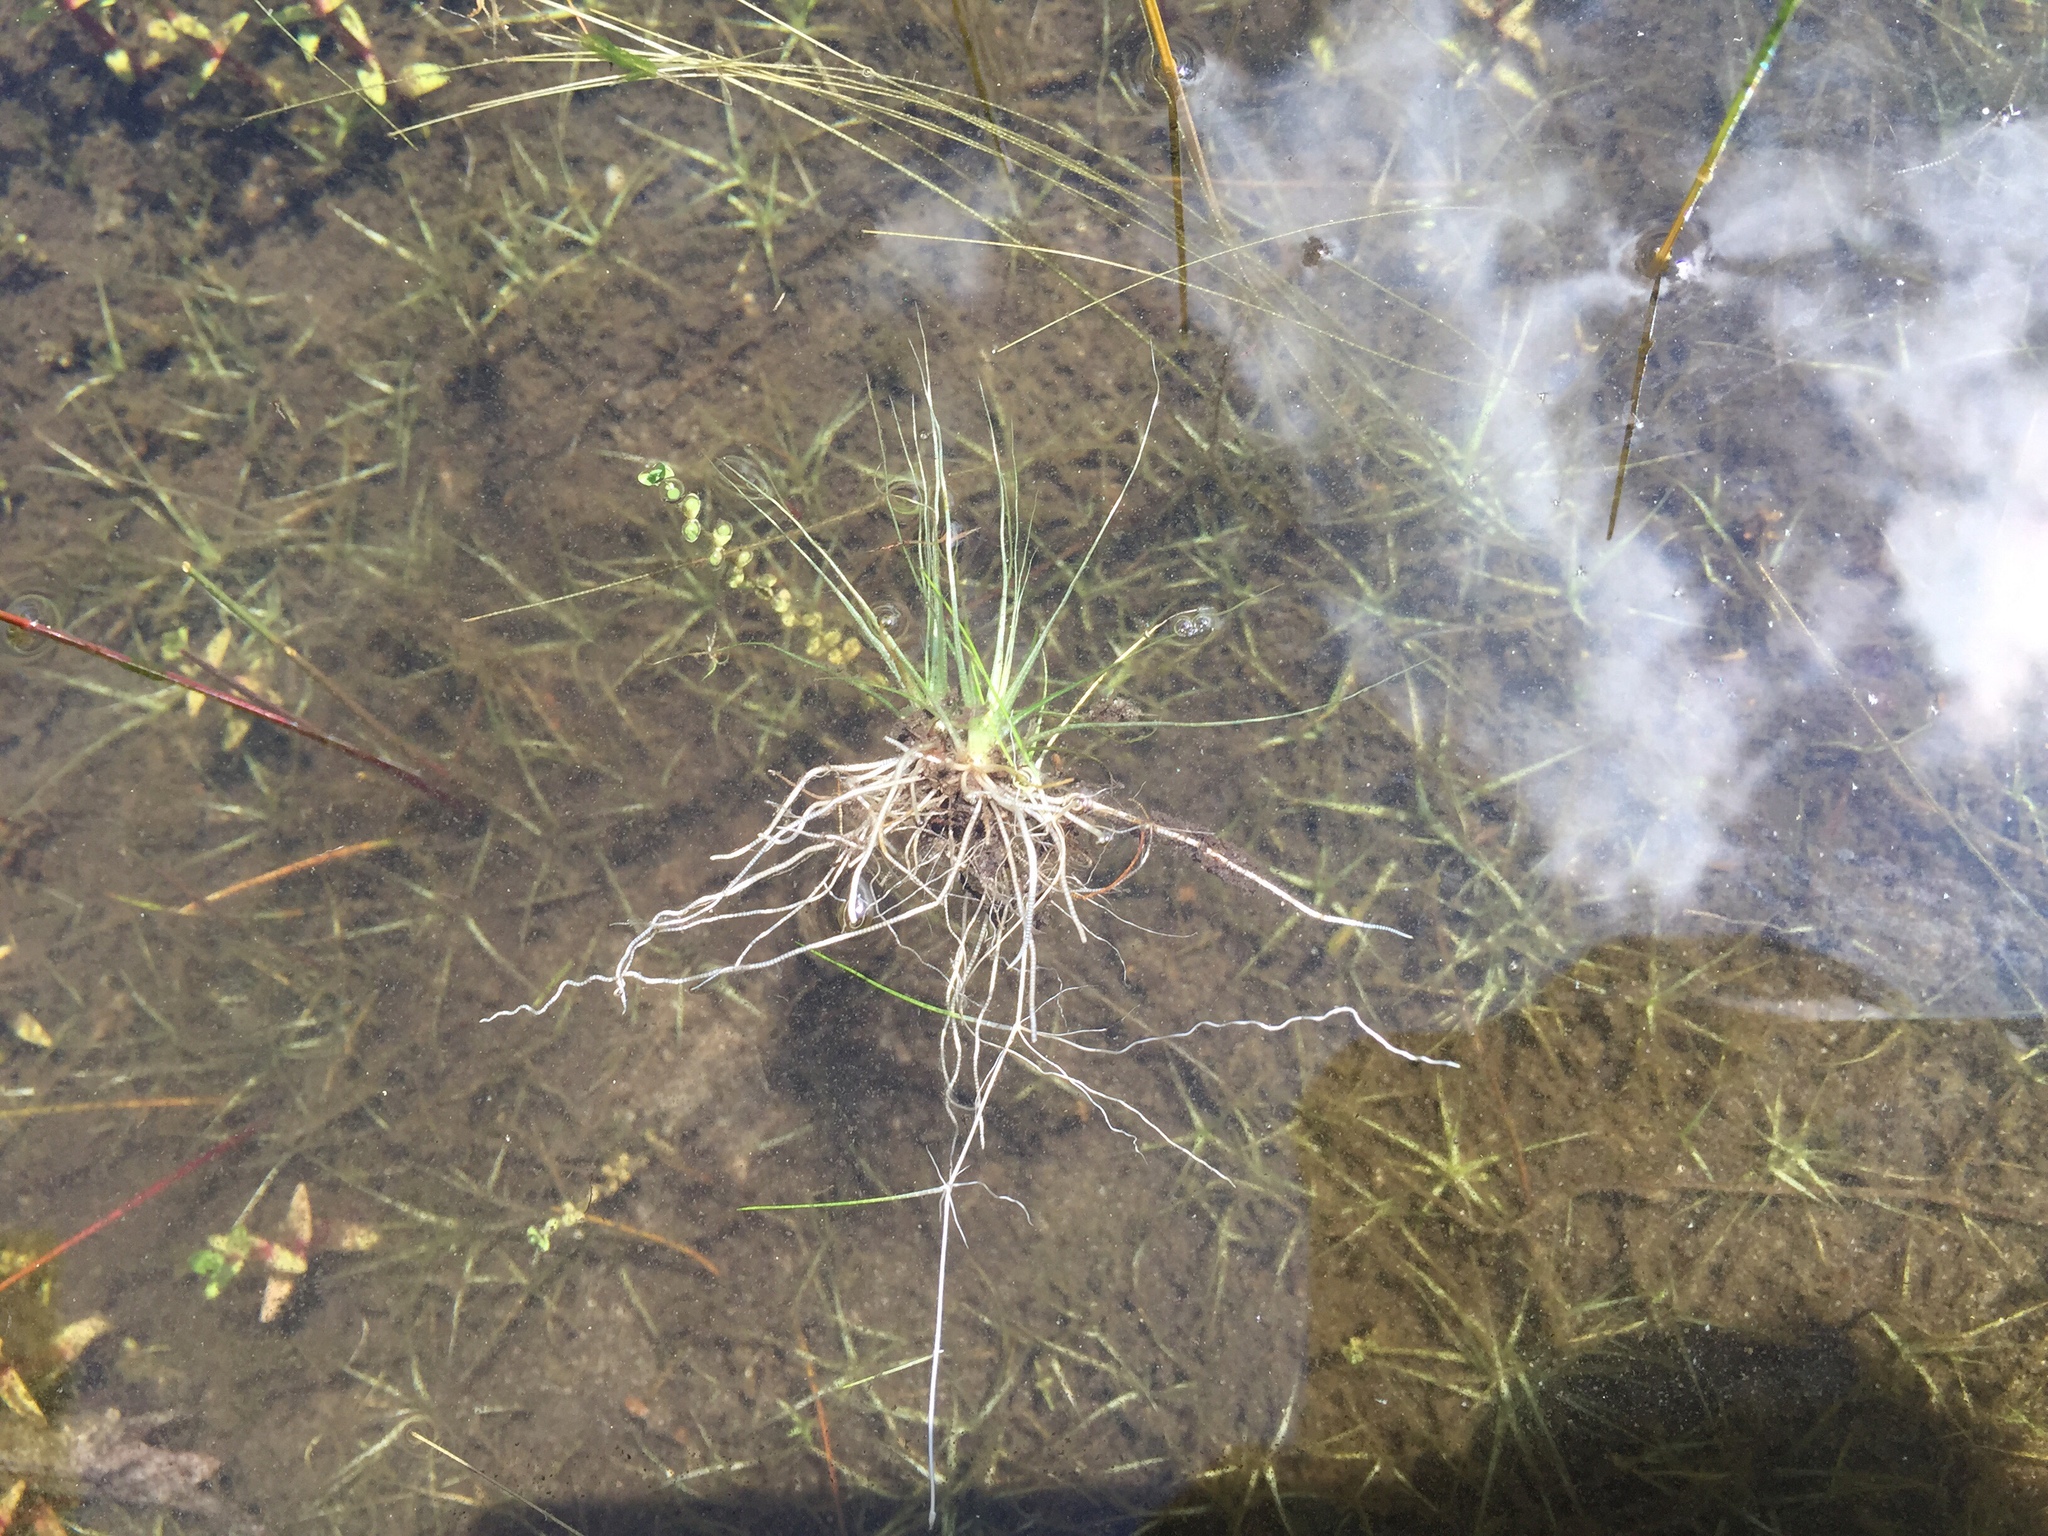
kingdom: Plantae
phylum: Tracheophyta
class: Lycopodiopsida
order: Isoetales
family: Isoetaceae
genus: Isoetes
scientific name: Isoetes
